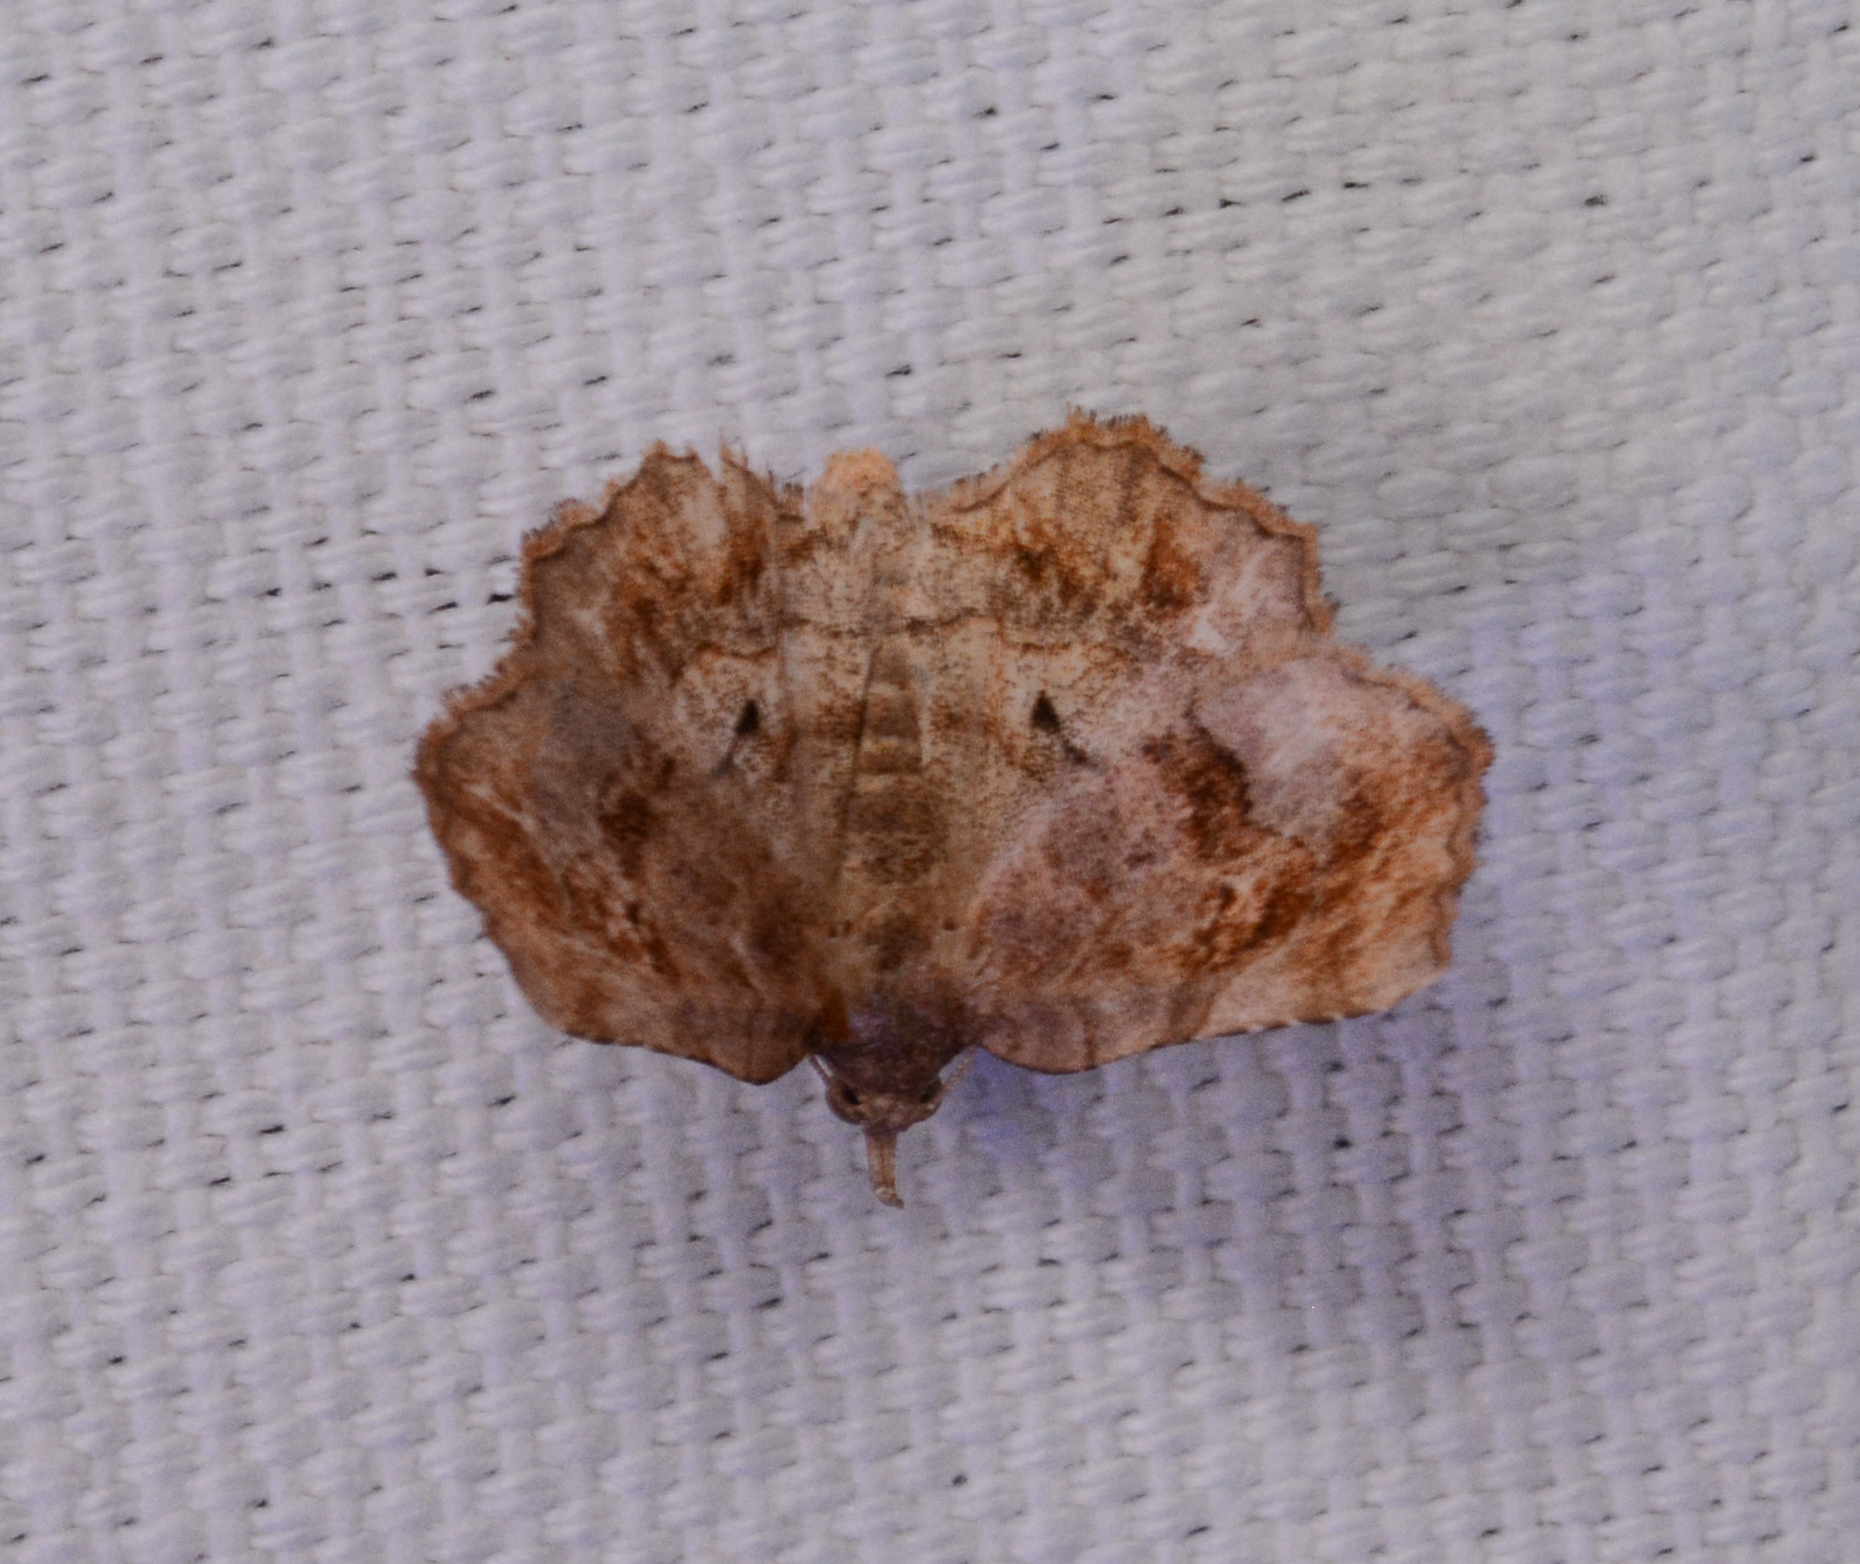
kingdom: Animalia
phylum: Arthropoda
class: Insecta
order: Lepidoptera
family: Erebidae
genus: Pangrapta
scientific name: Pangrapta decoralis
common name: Decorated owlet
